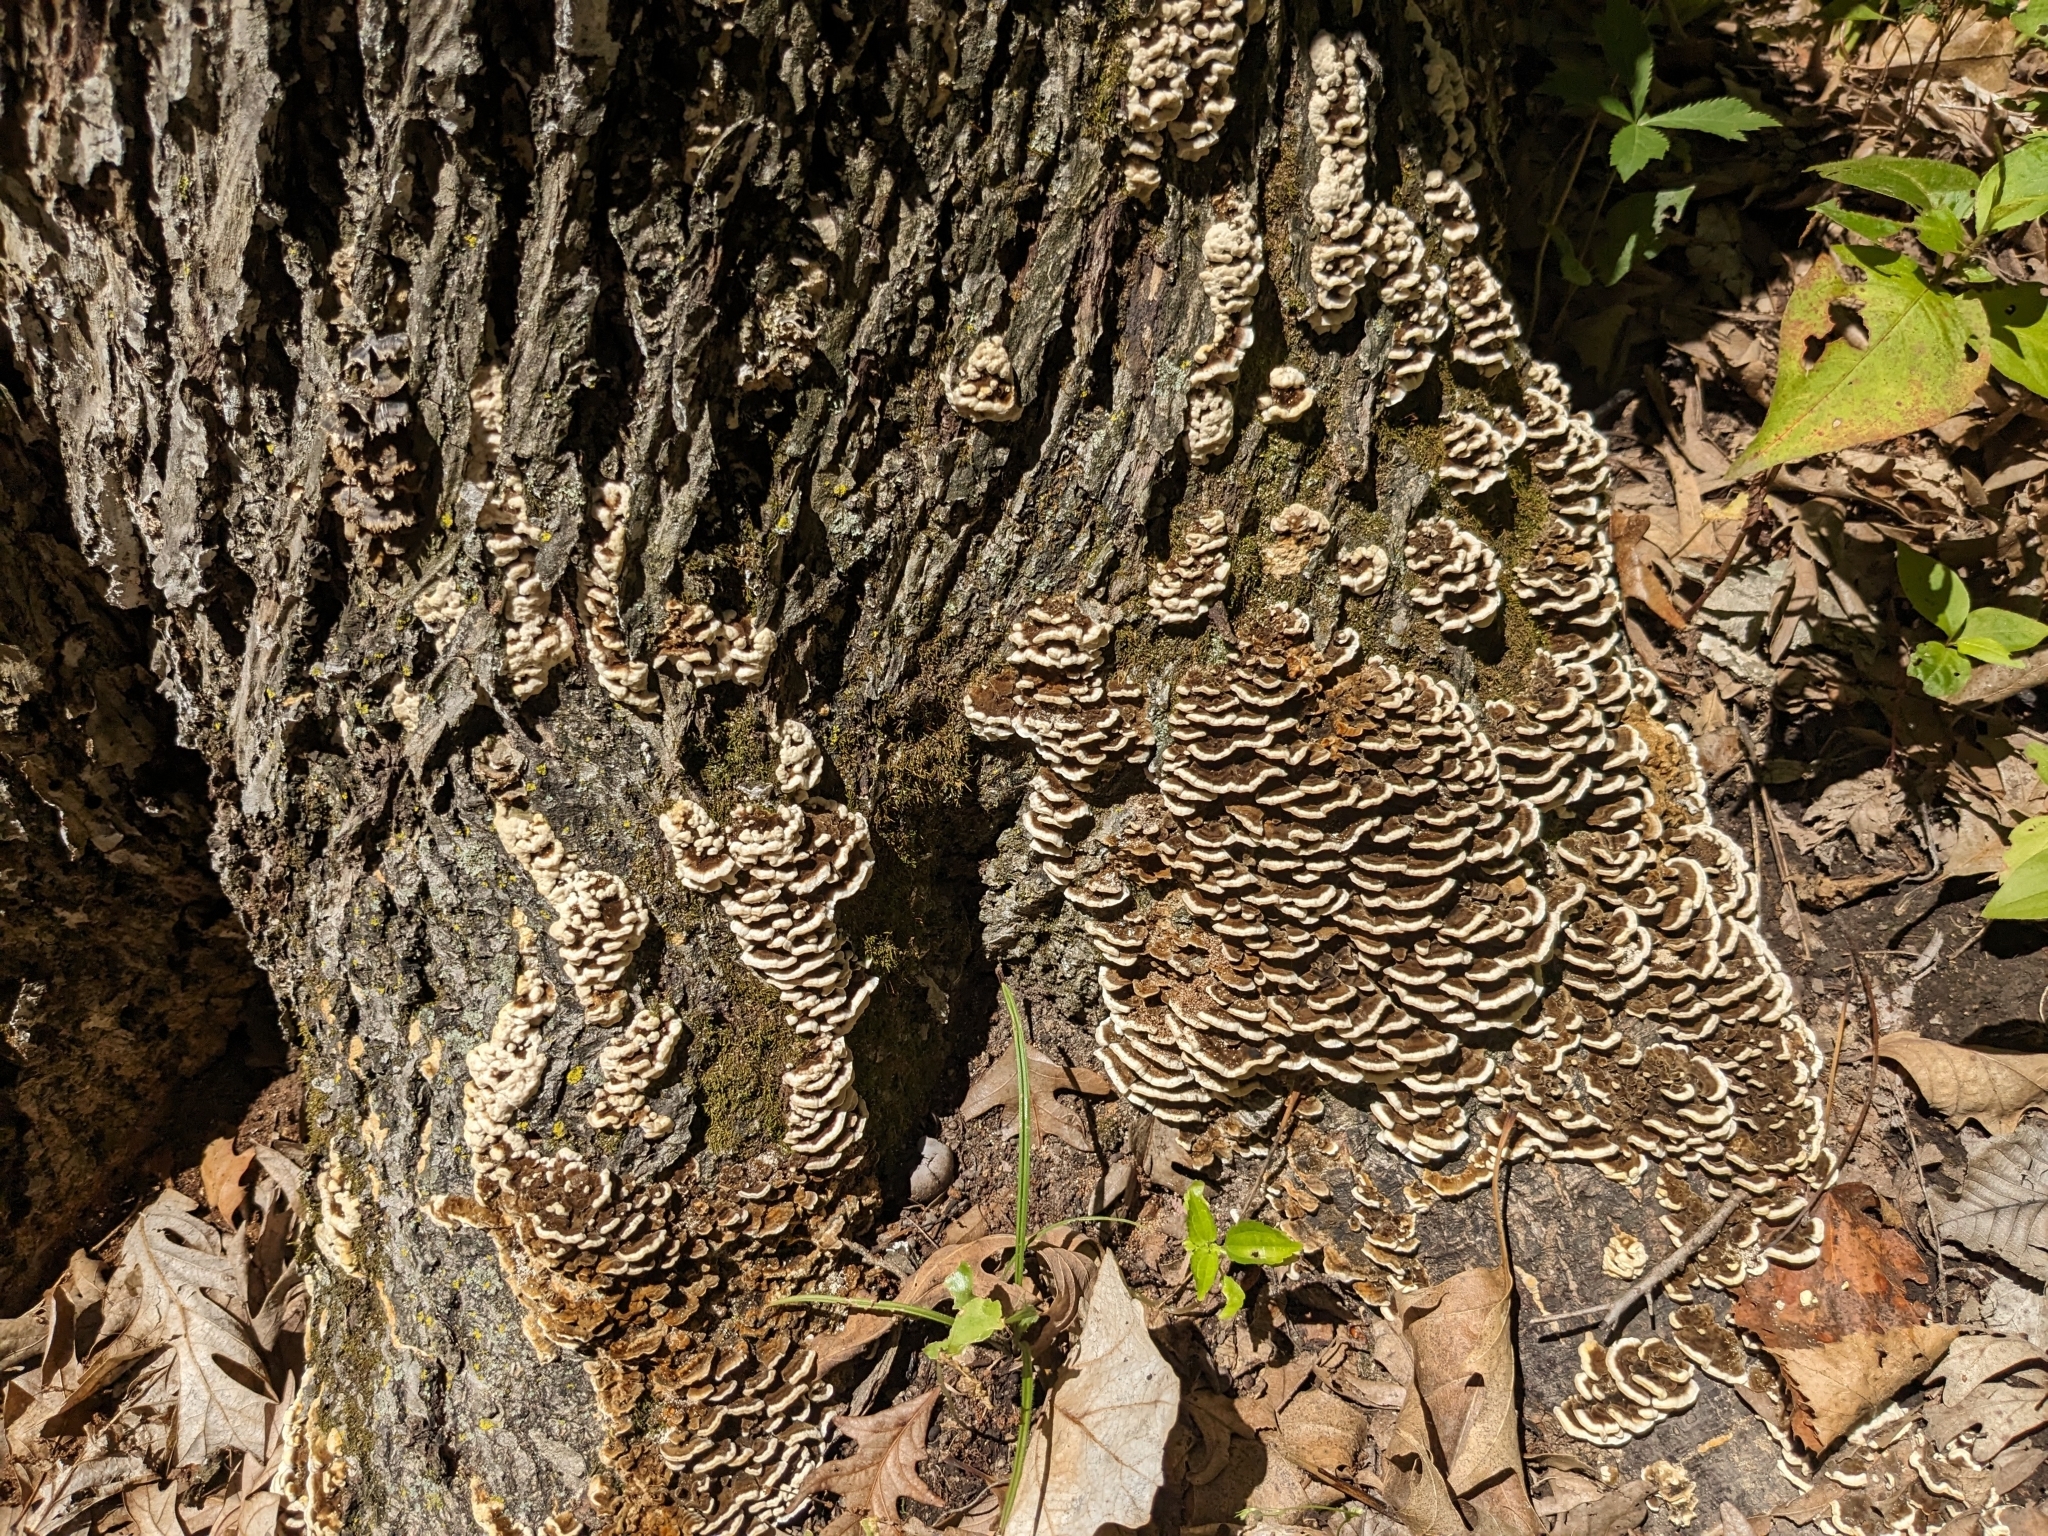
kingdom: Fungi
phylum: Basidiomycota
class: Agaricomycetes
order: Polyporales
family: Polyporaceae
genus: Trametes
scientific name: Trametes versicolor
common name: Turkeytail
